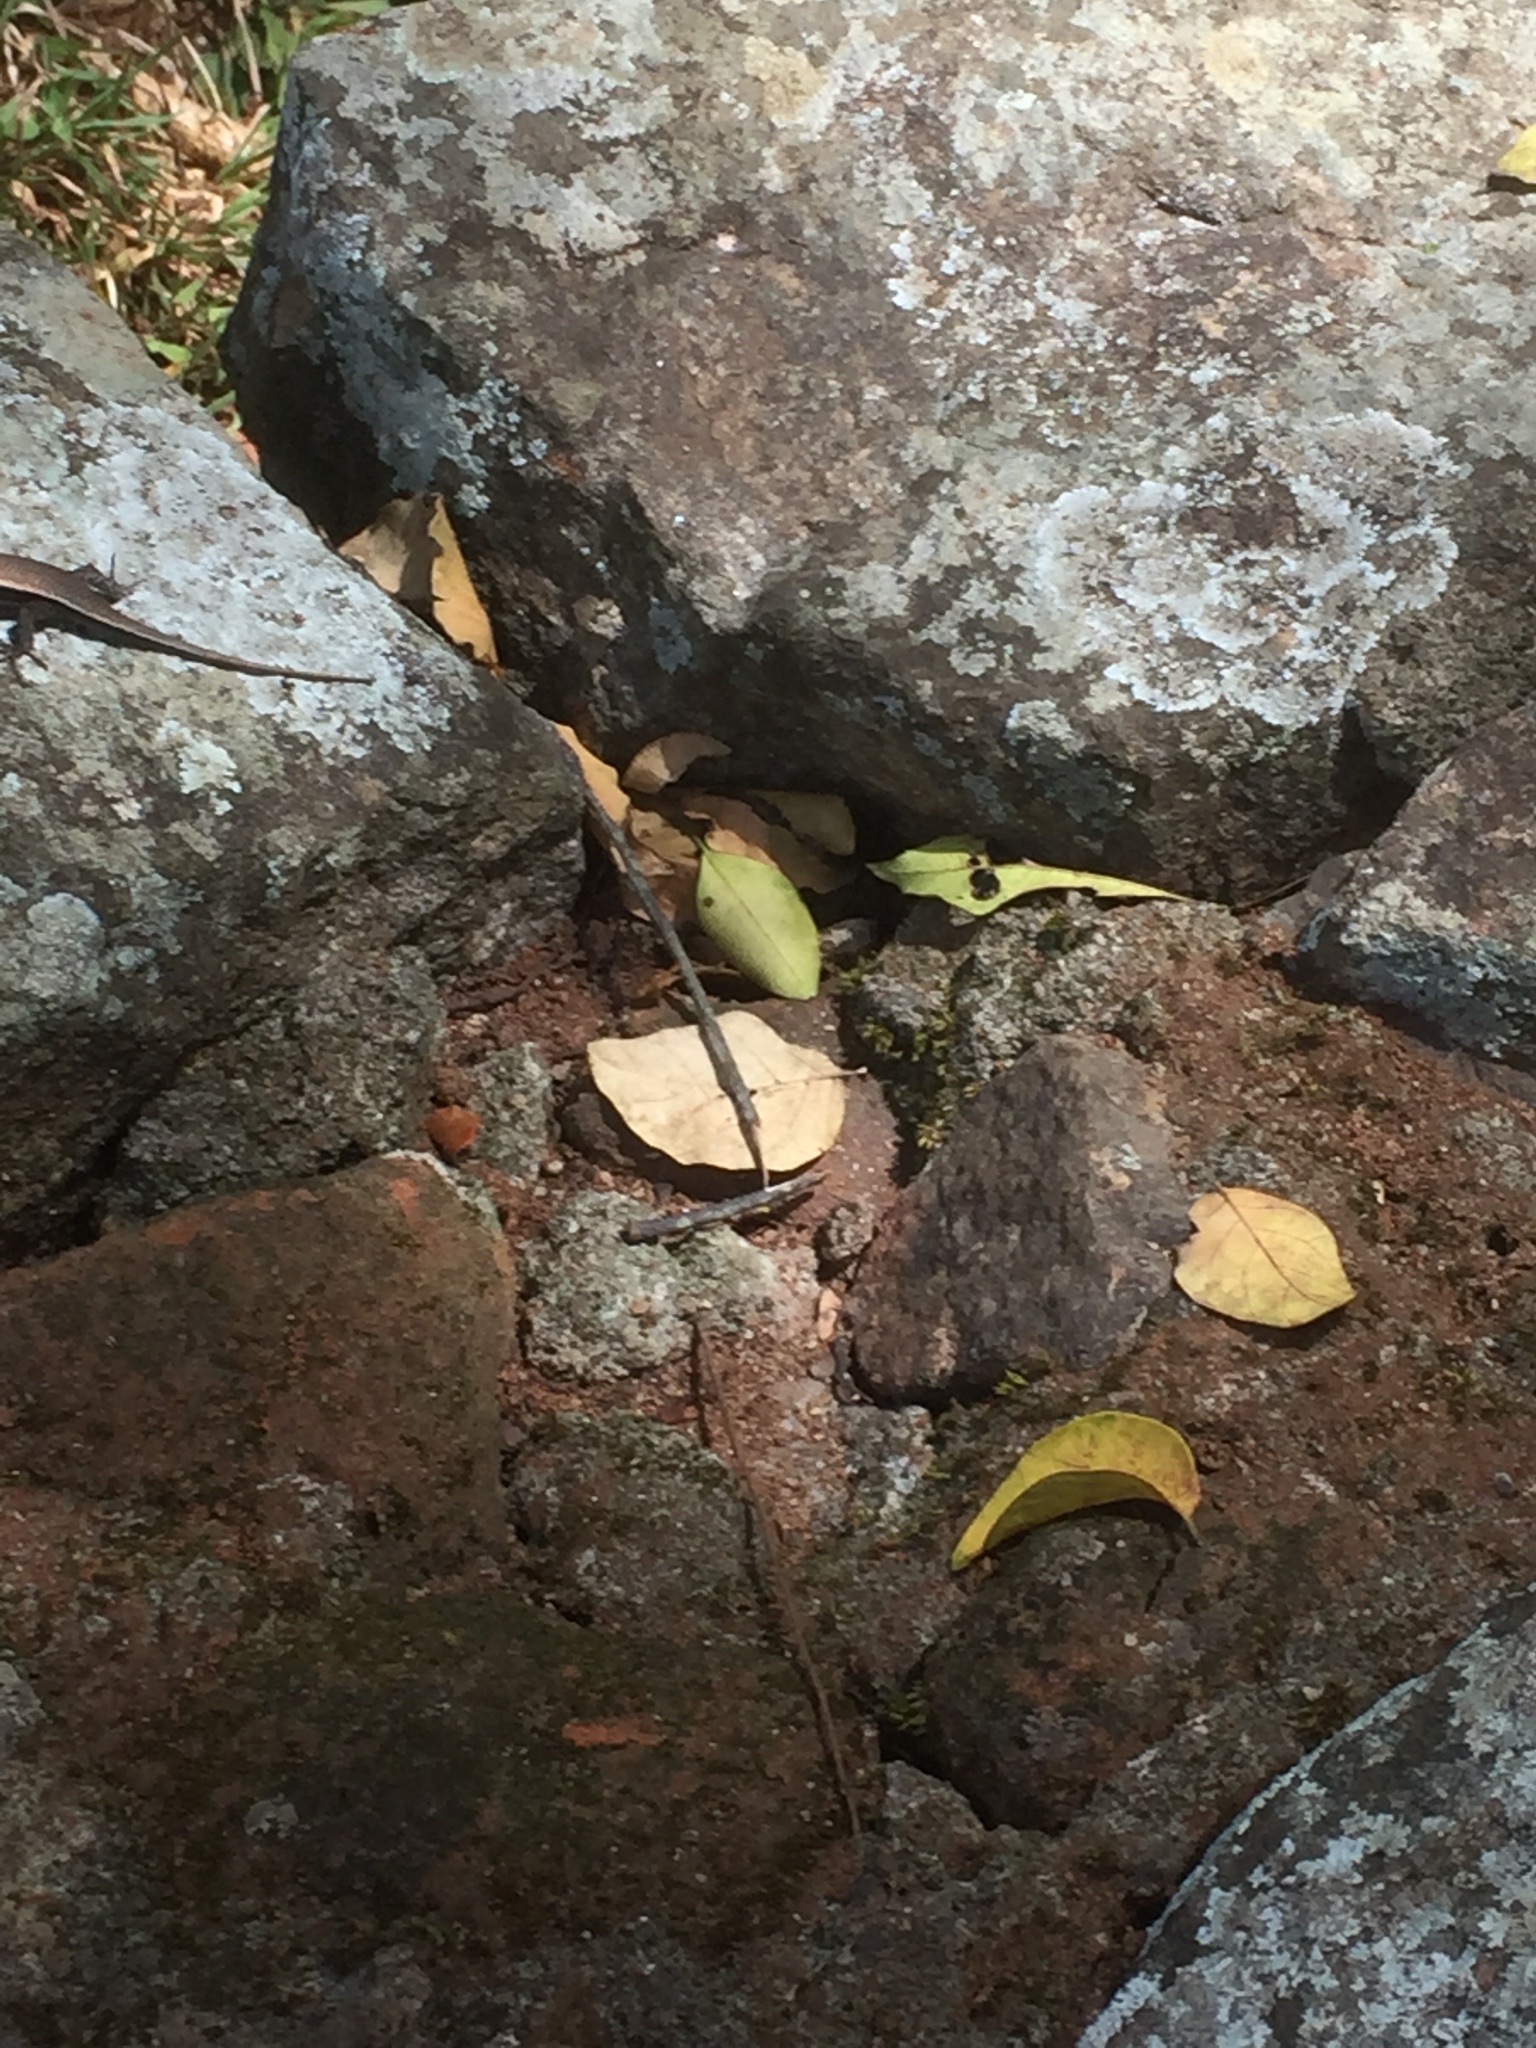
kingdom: Animalia
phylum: Chordata
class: Squamata
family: Scincidae
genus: Eutropis
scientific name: Eutropis madaraszi
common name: Sri lanka bronze skink
